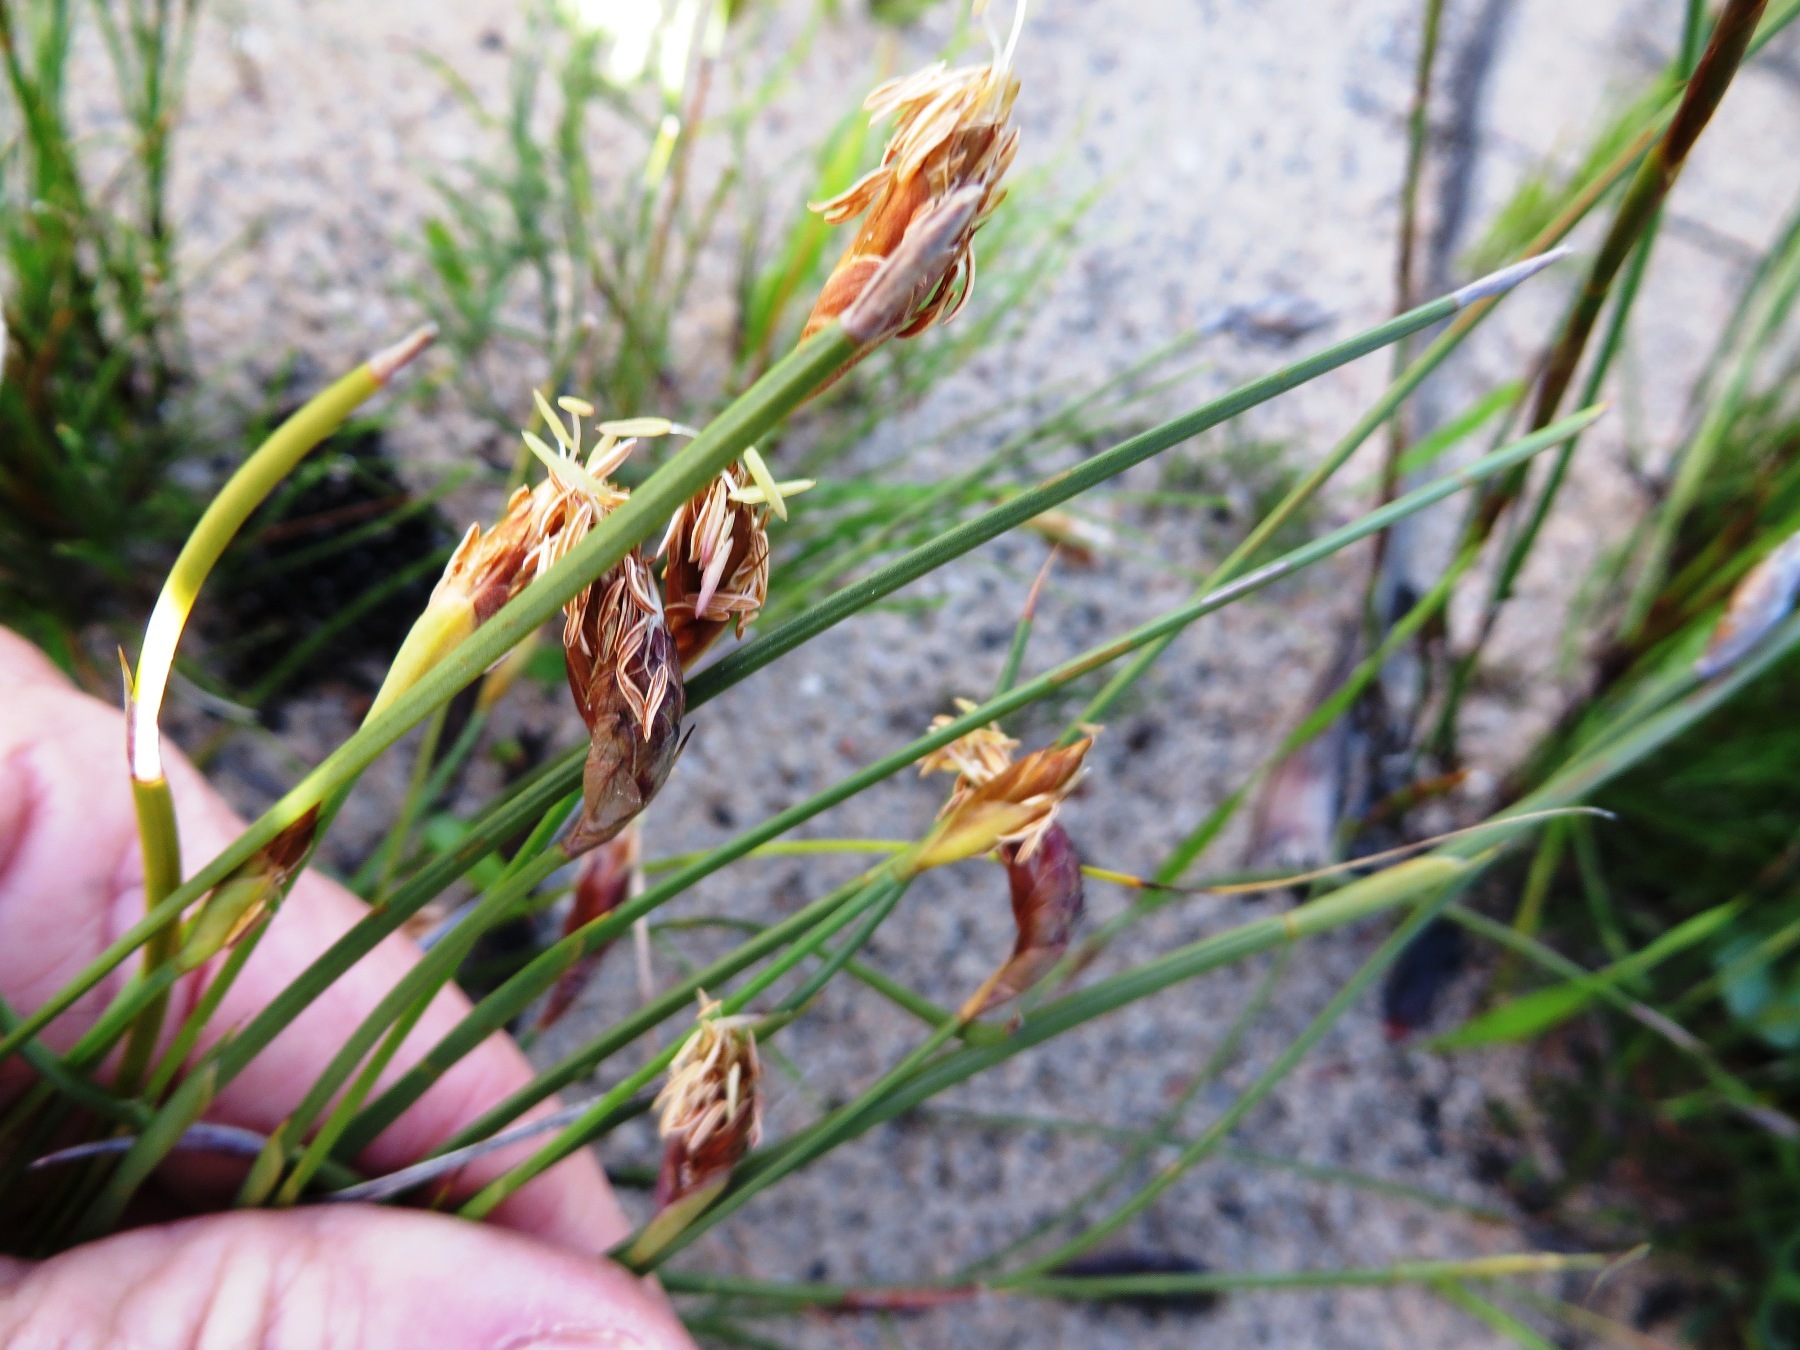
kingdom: Plantae
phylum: Tracheophyta
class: Liliopsida
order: Poales
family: Restionaceae
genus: Hypodiscus
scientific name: Hypodiscus willdenowia
